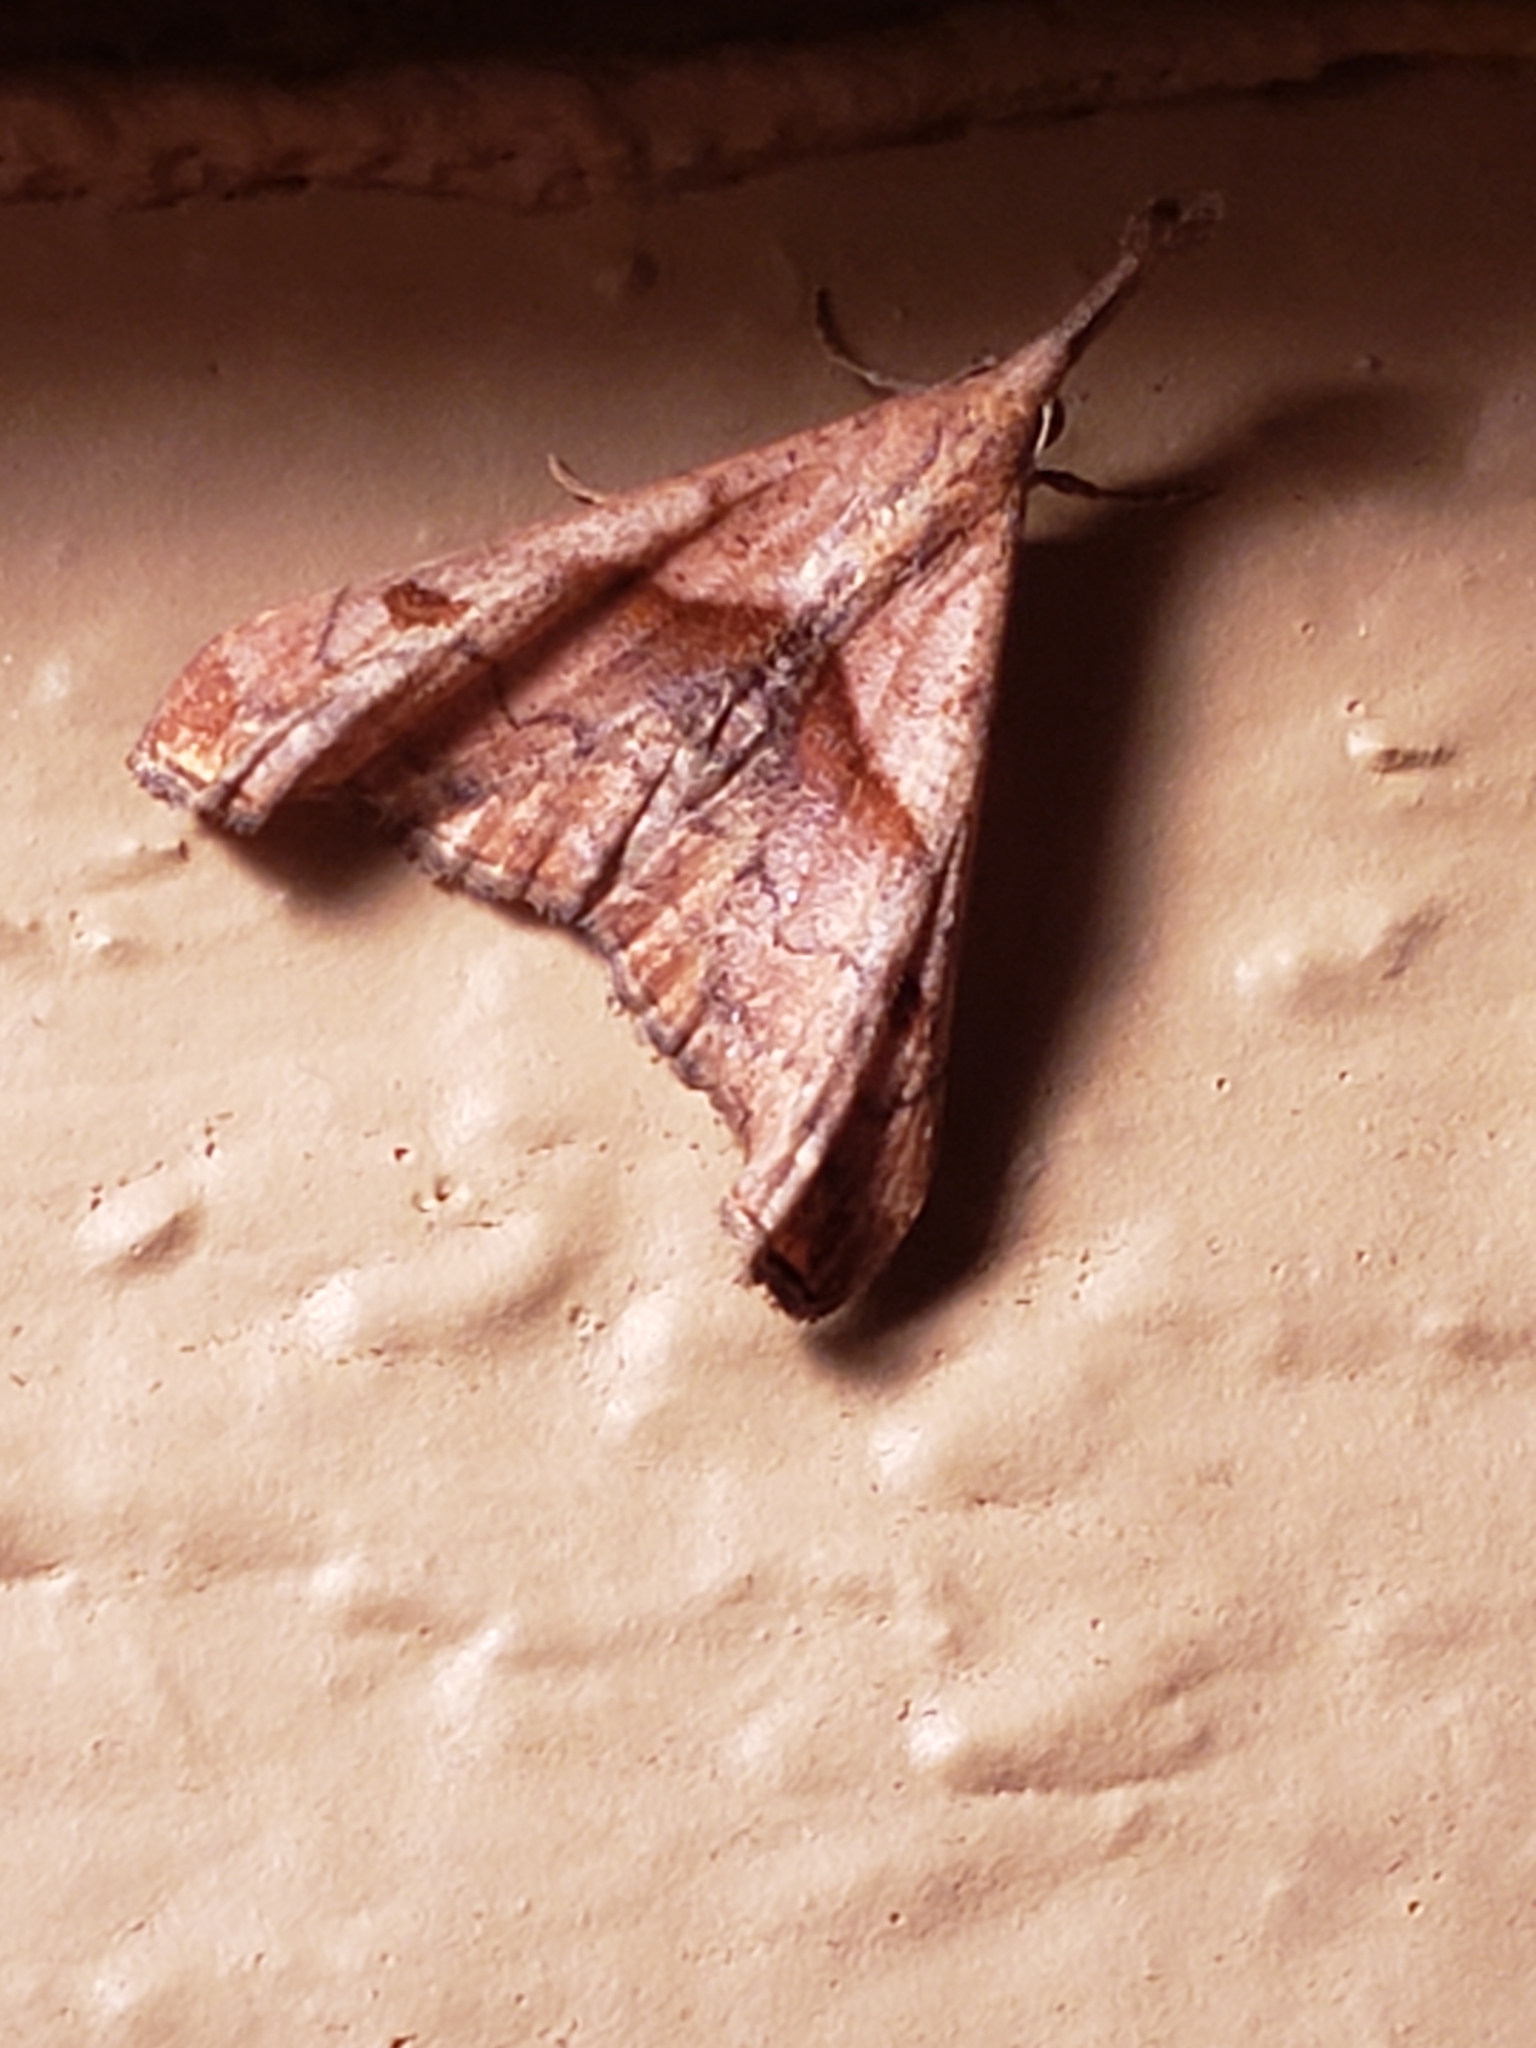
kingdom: Animalia
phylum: Arthropoda
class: Insecta
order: Lepidoptera
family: Erebidae
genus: Palthis
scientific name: Palthis angulalis
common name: Dark-spotted palthis moth
